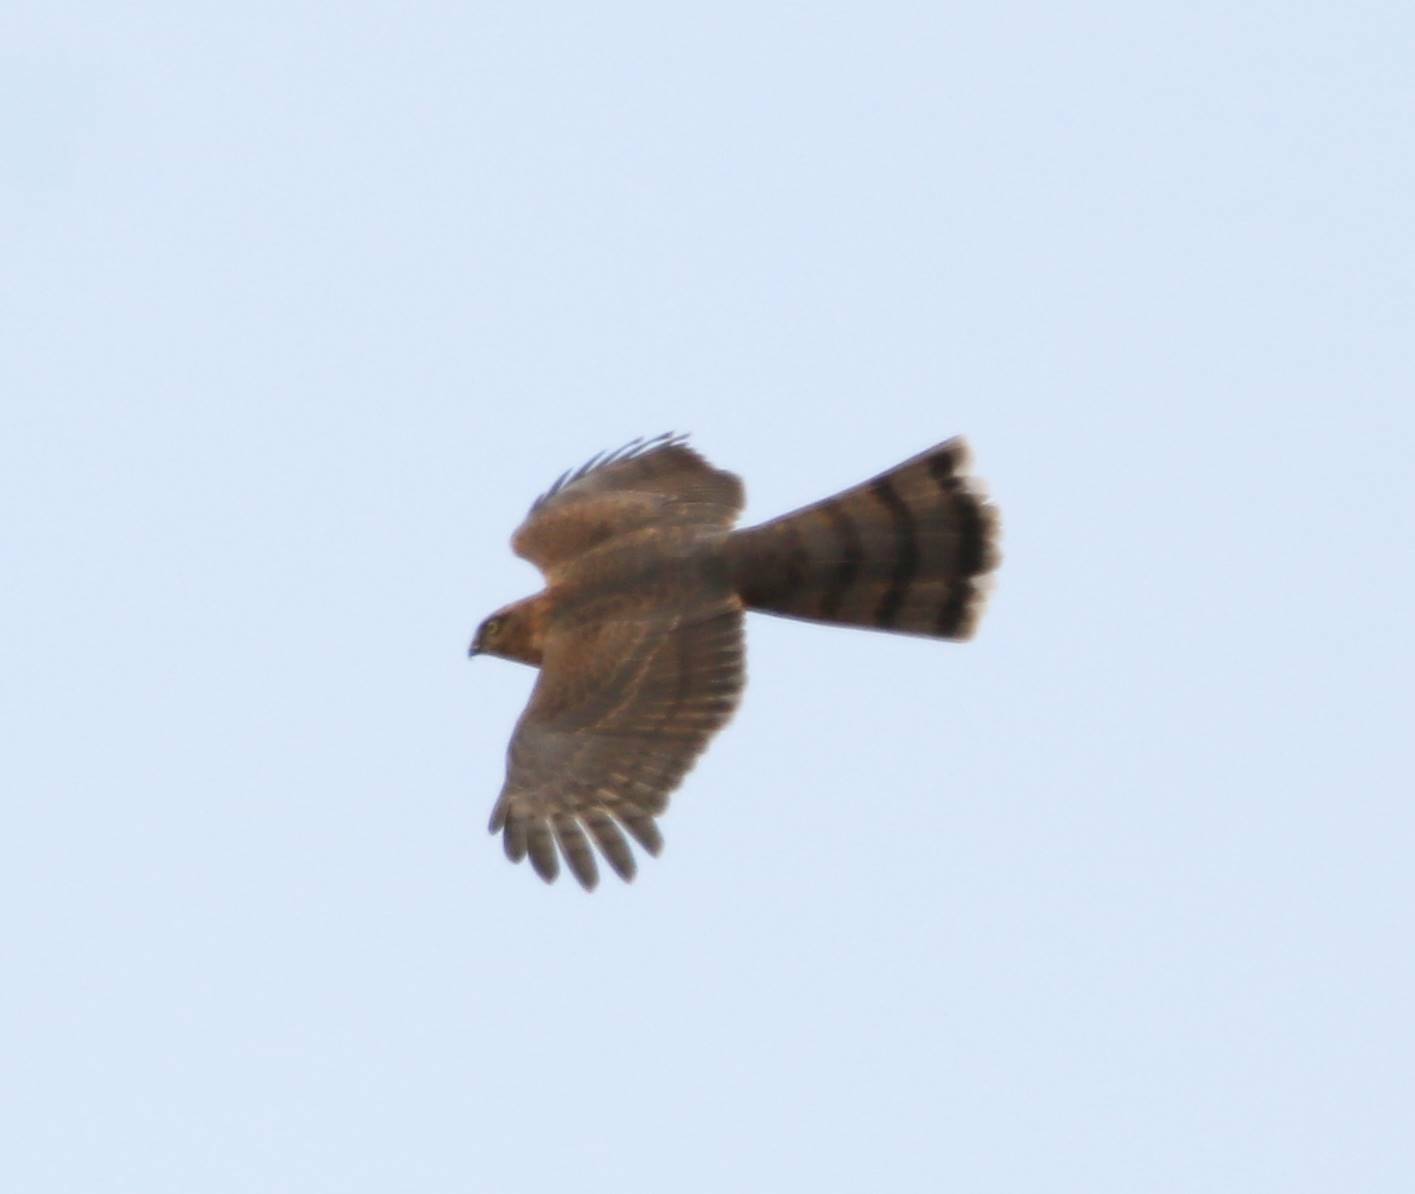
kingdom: Animalia
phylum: Chordata
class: Aves
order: Accipitriformes
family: Accipitridae
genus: Accipiter
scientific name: Accipiter nisus
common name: Eurasian sparrowhawk
